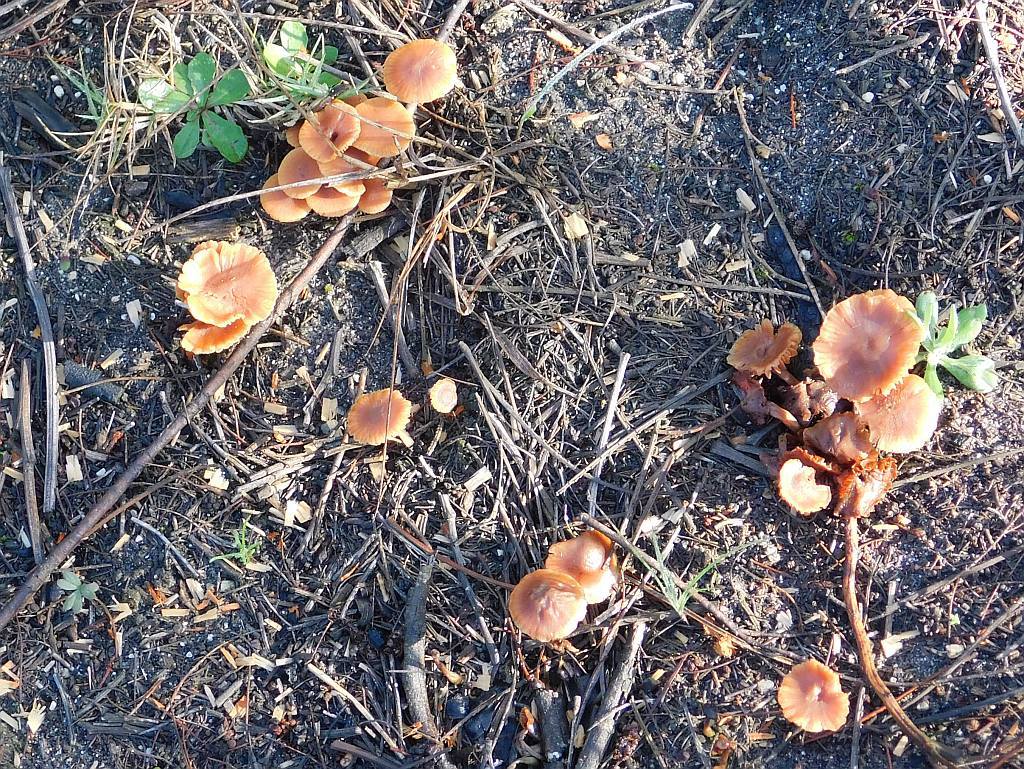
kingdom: Fungi
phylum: Basidiomycota
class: Agaricomycetes
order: Agaricales
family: Hydnangiaceae
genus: Laccaria
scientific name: Laccaria laccata
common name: Deceiver
